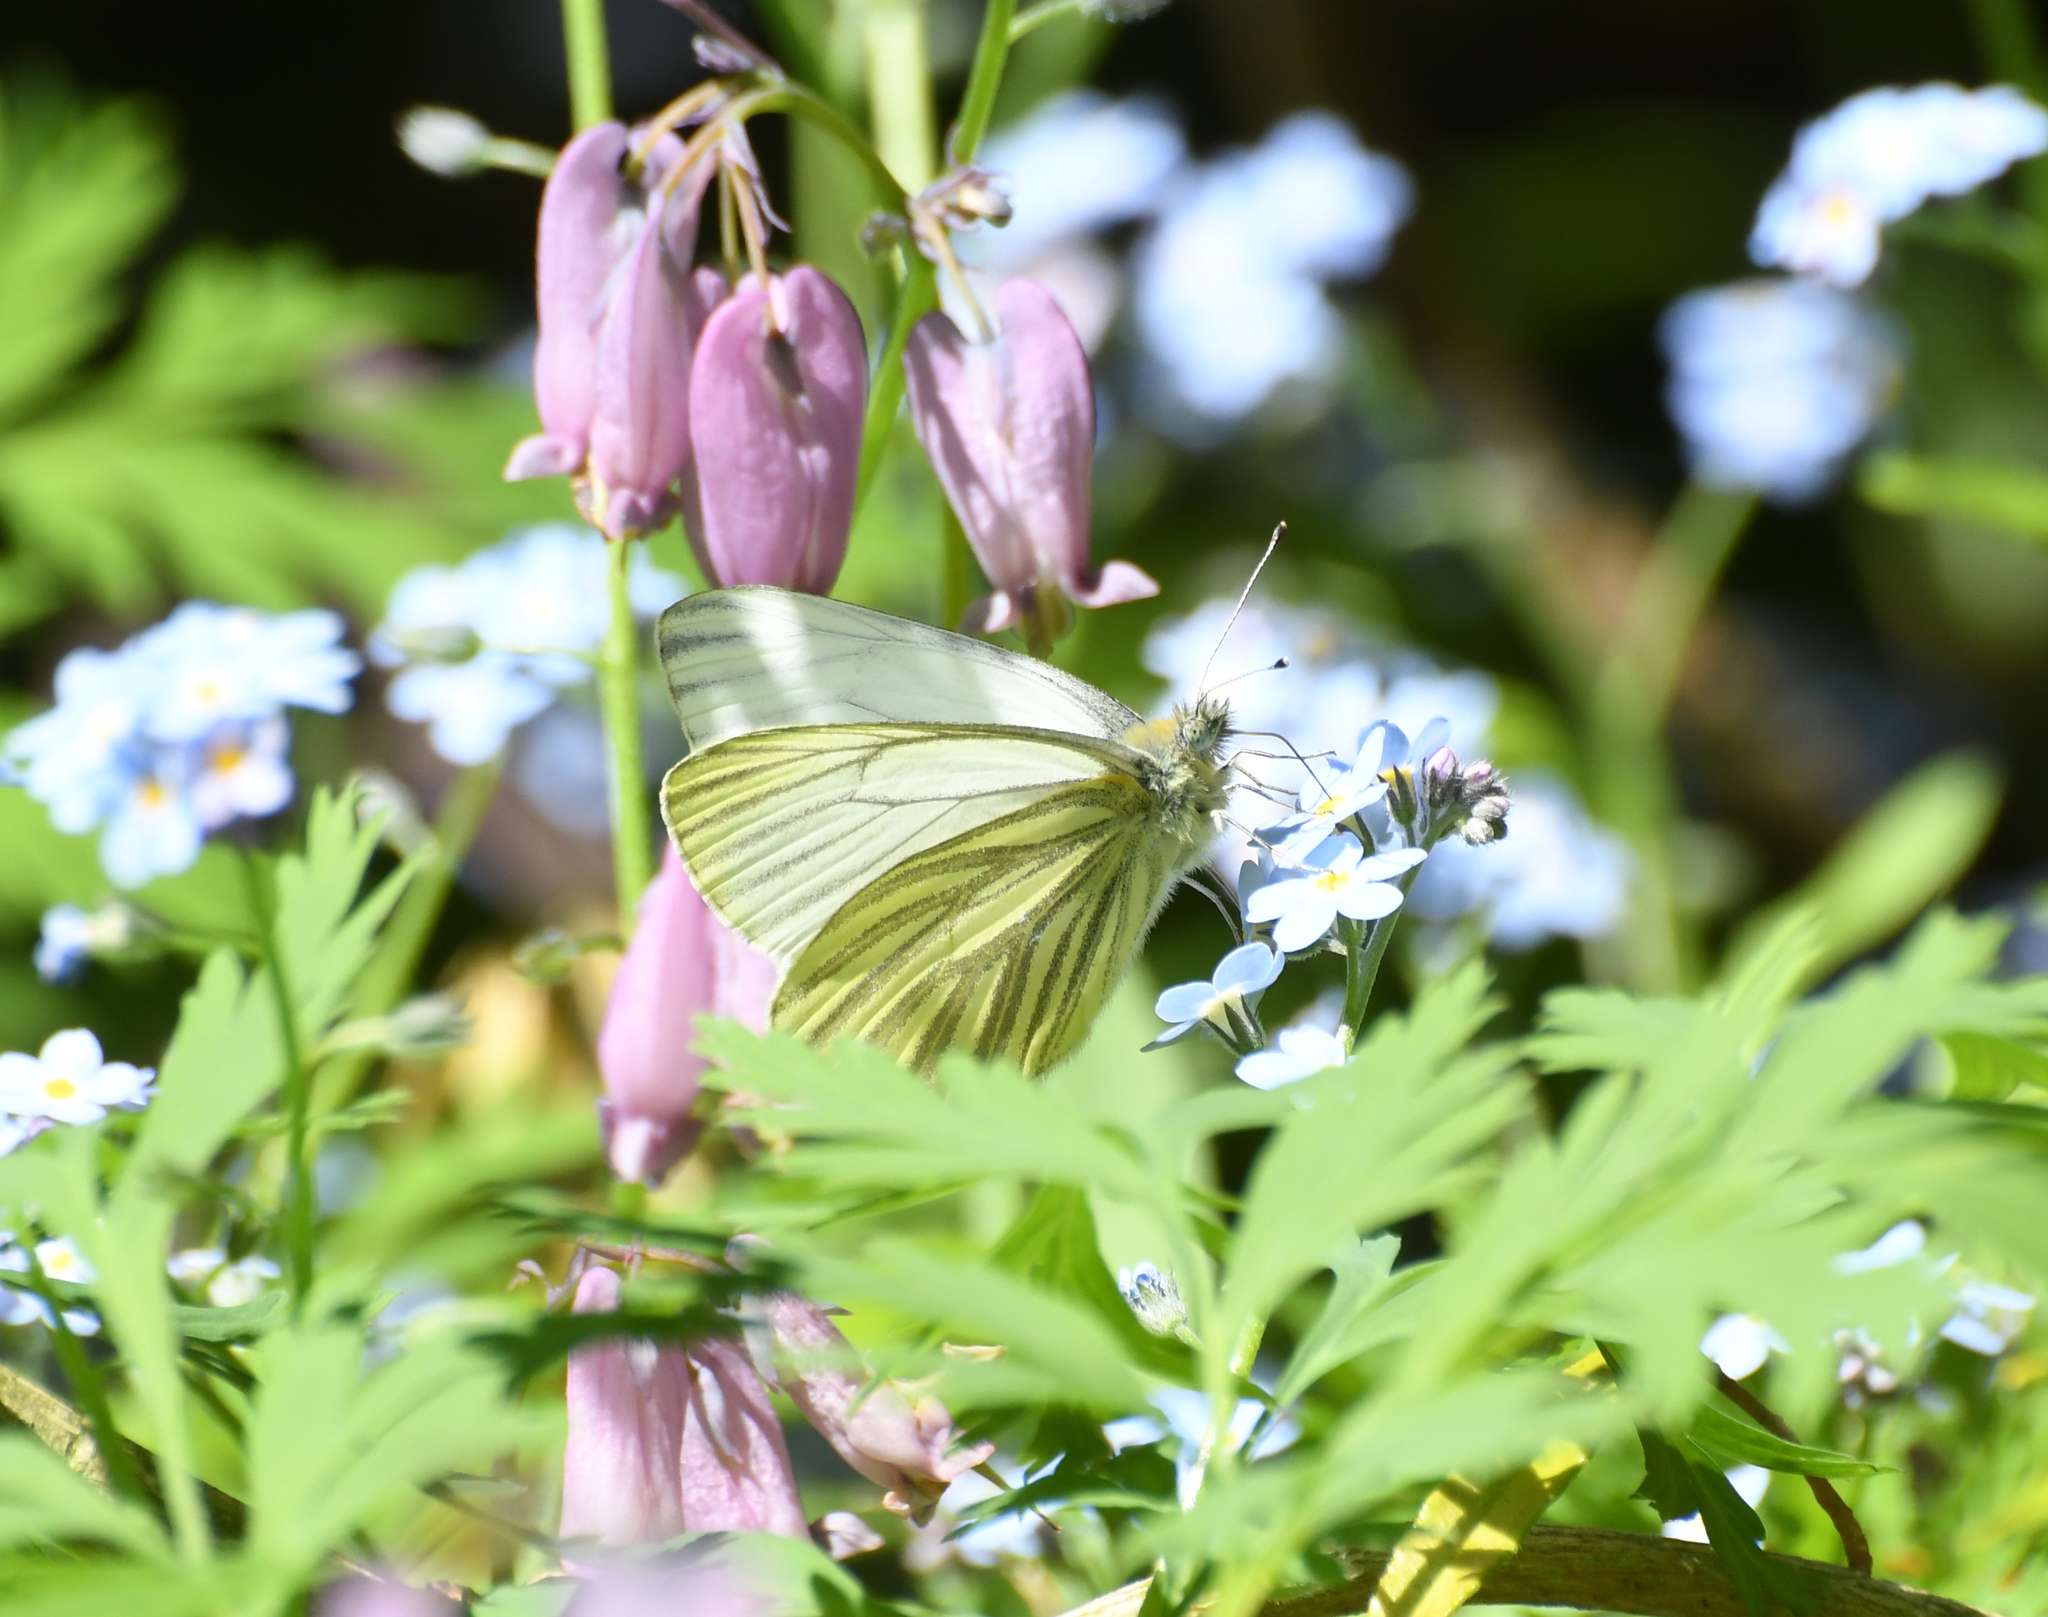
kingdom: Animalia
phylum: Arthropoda
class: Insecta
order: Lepidoptera
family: Pieridae
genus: Pieris
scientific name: Pieris marginalis
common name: Margined white
